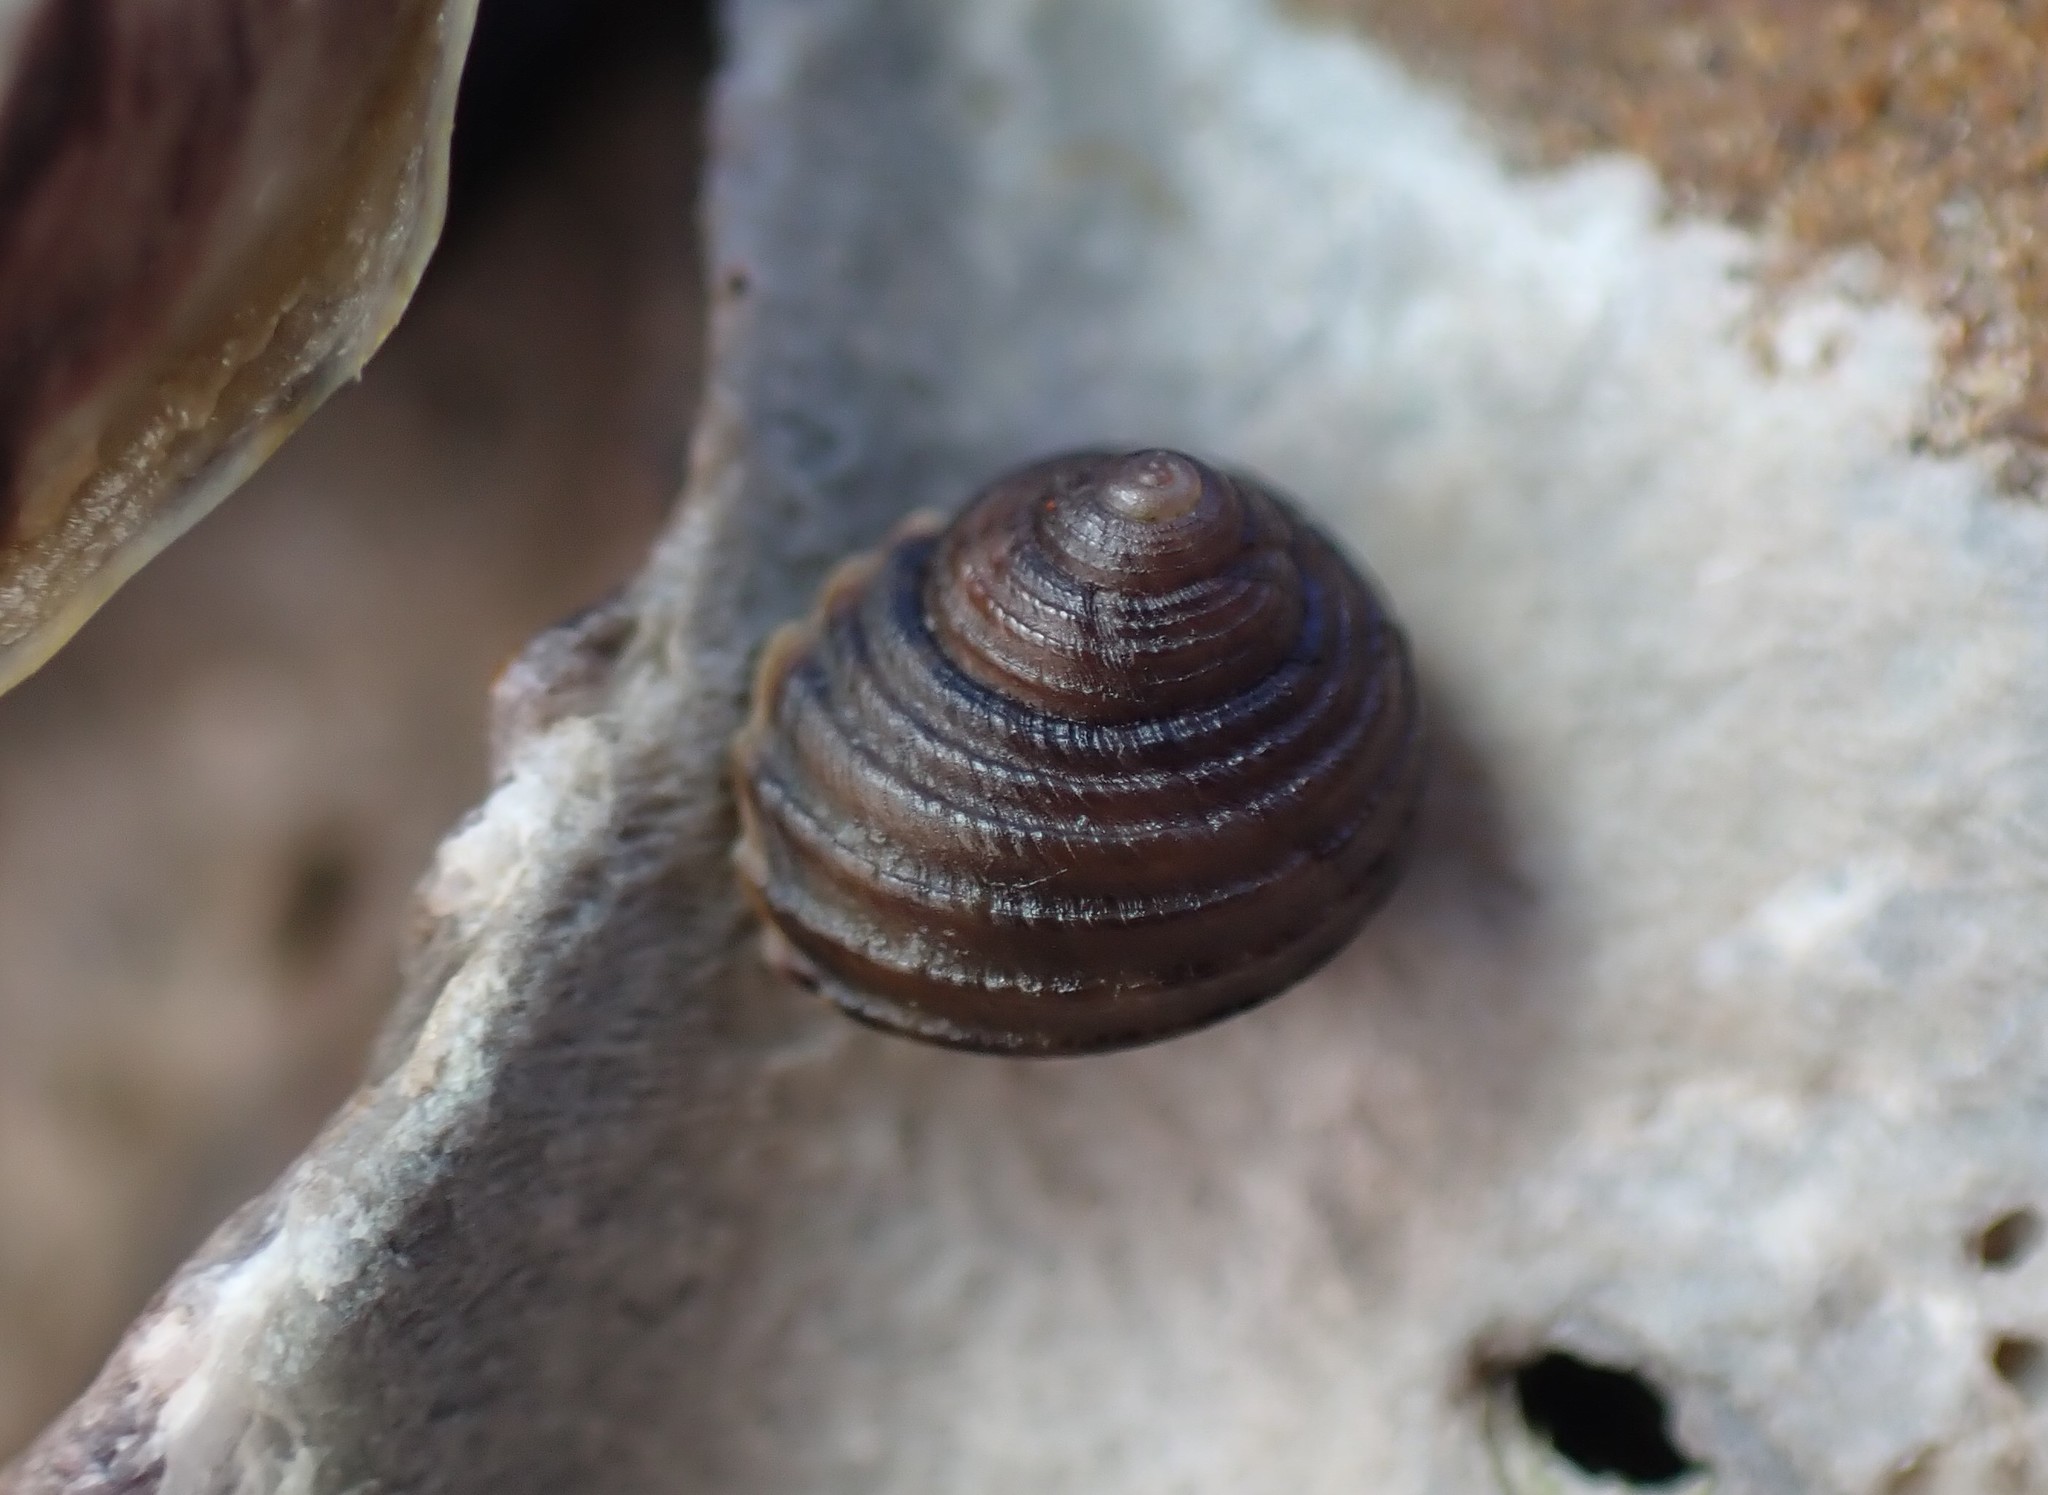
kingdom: Animalia
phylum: Mollusca
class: Gastropoda
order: Trochida
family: Trochidae
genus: Diloma
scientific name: Diloma aethiops
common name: Scorched monodont
